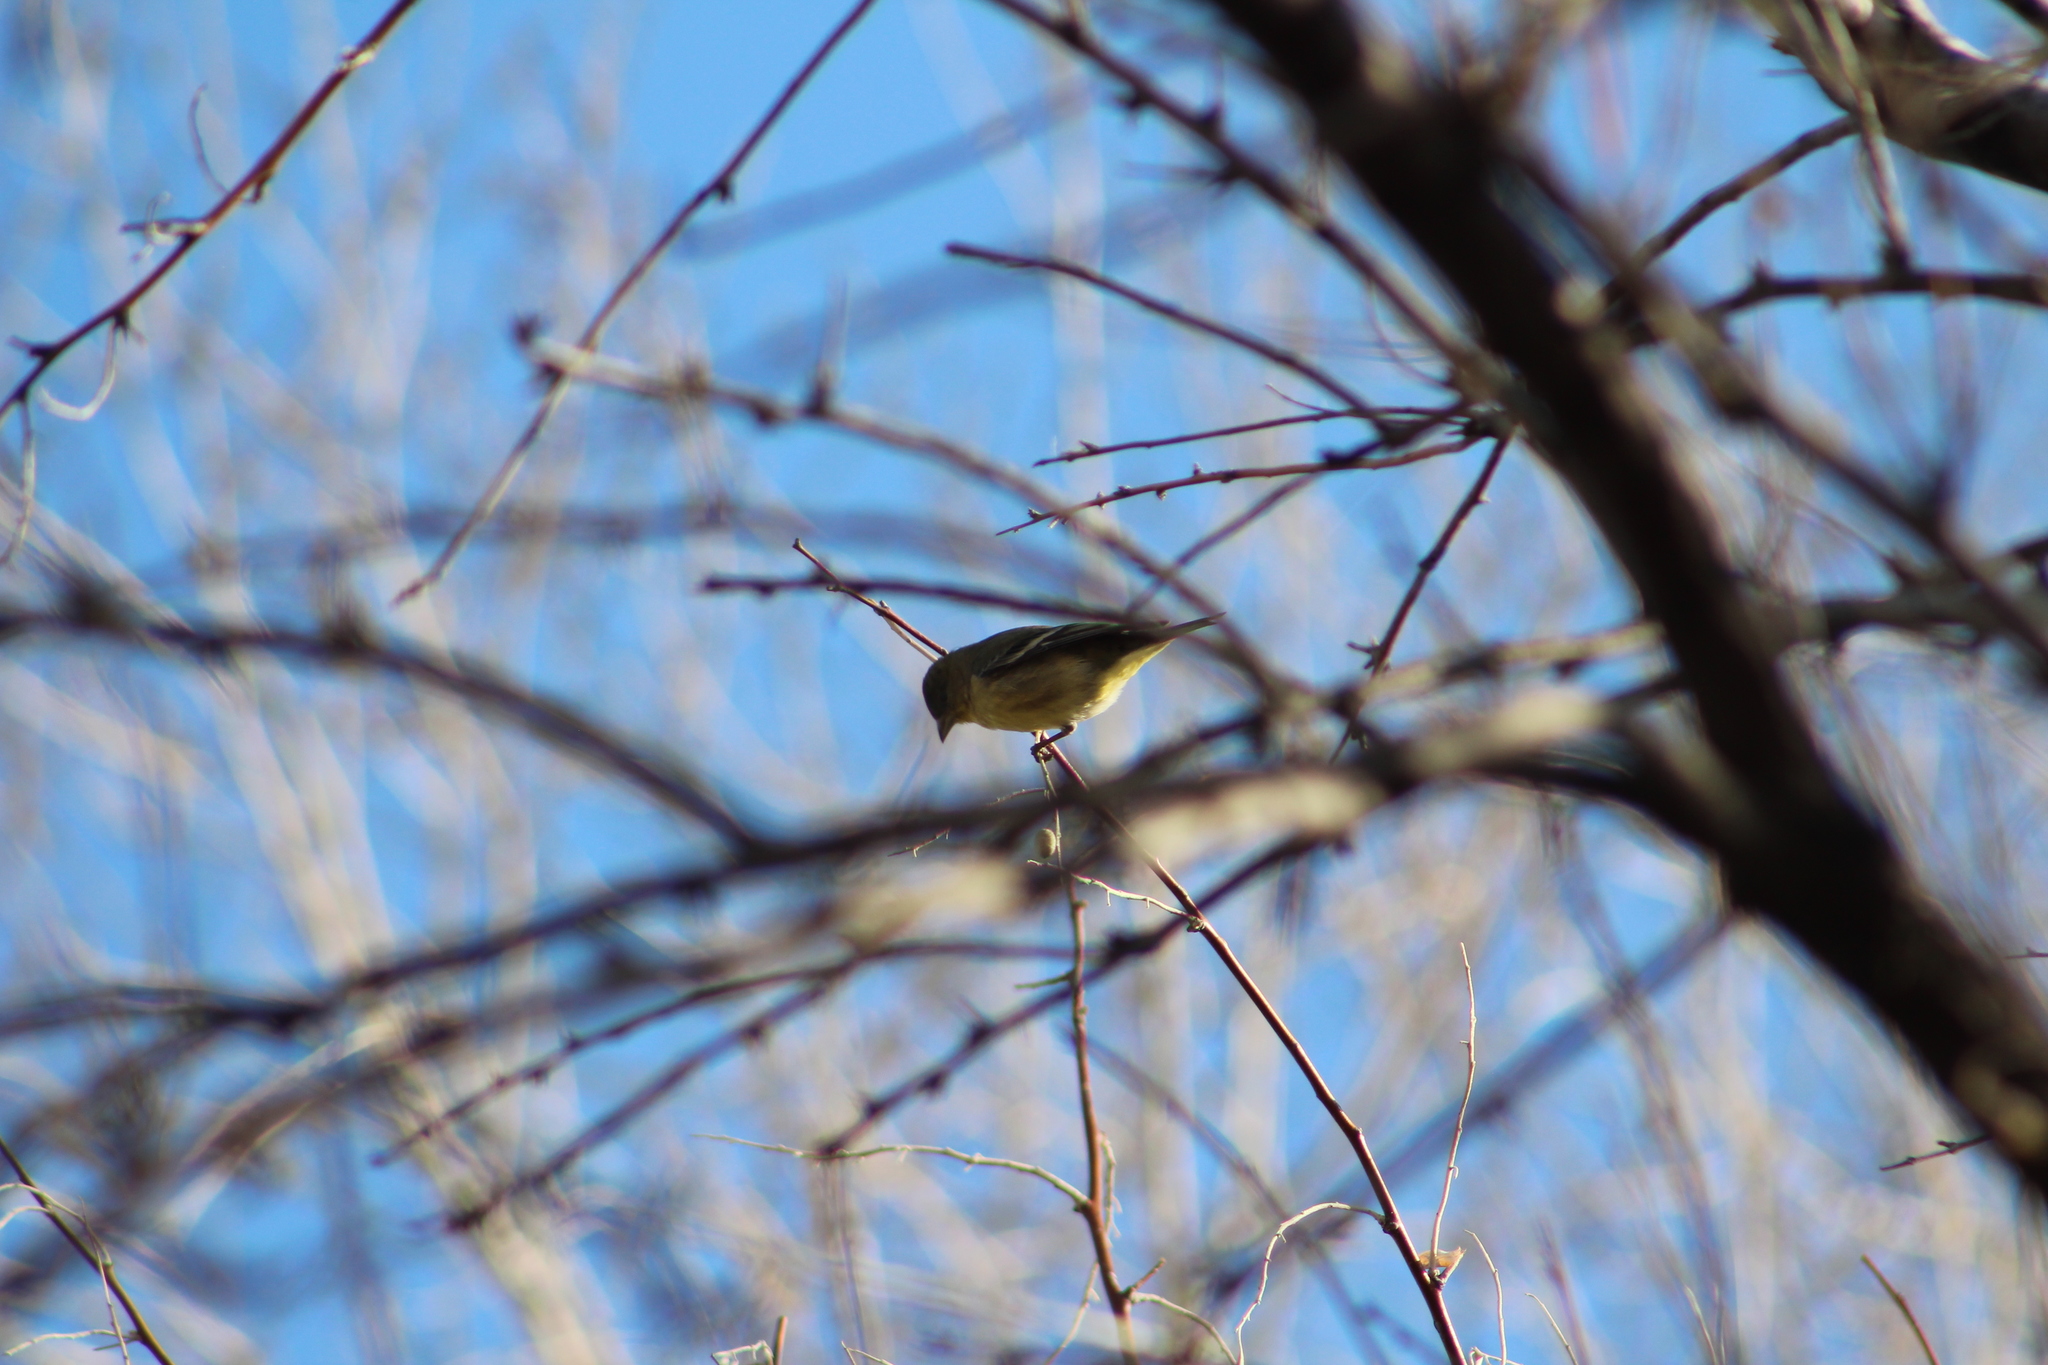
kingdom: Animalia
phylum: Chordata
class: Aves
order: Passeriformes
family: Fringillidae
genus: Spinus
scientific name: Spinus psaltria
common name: Lesser goldfinch
